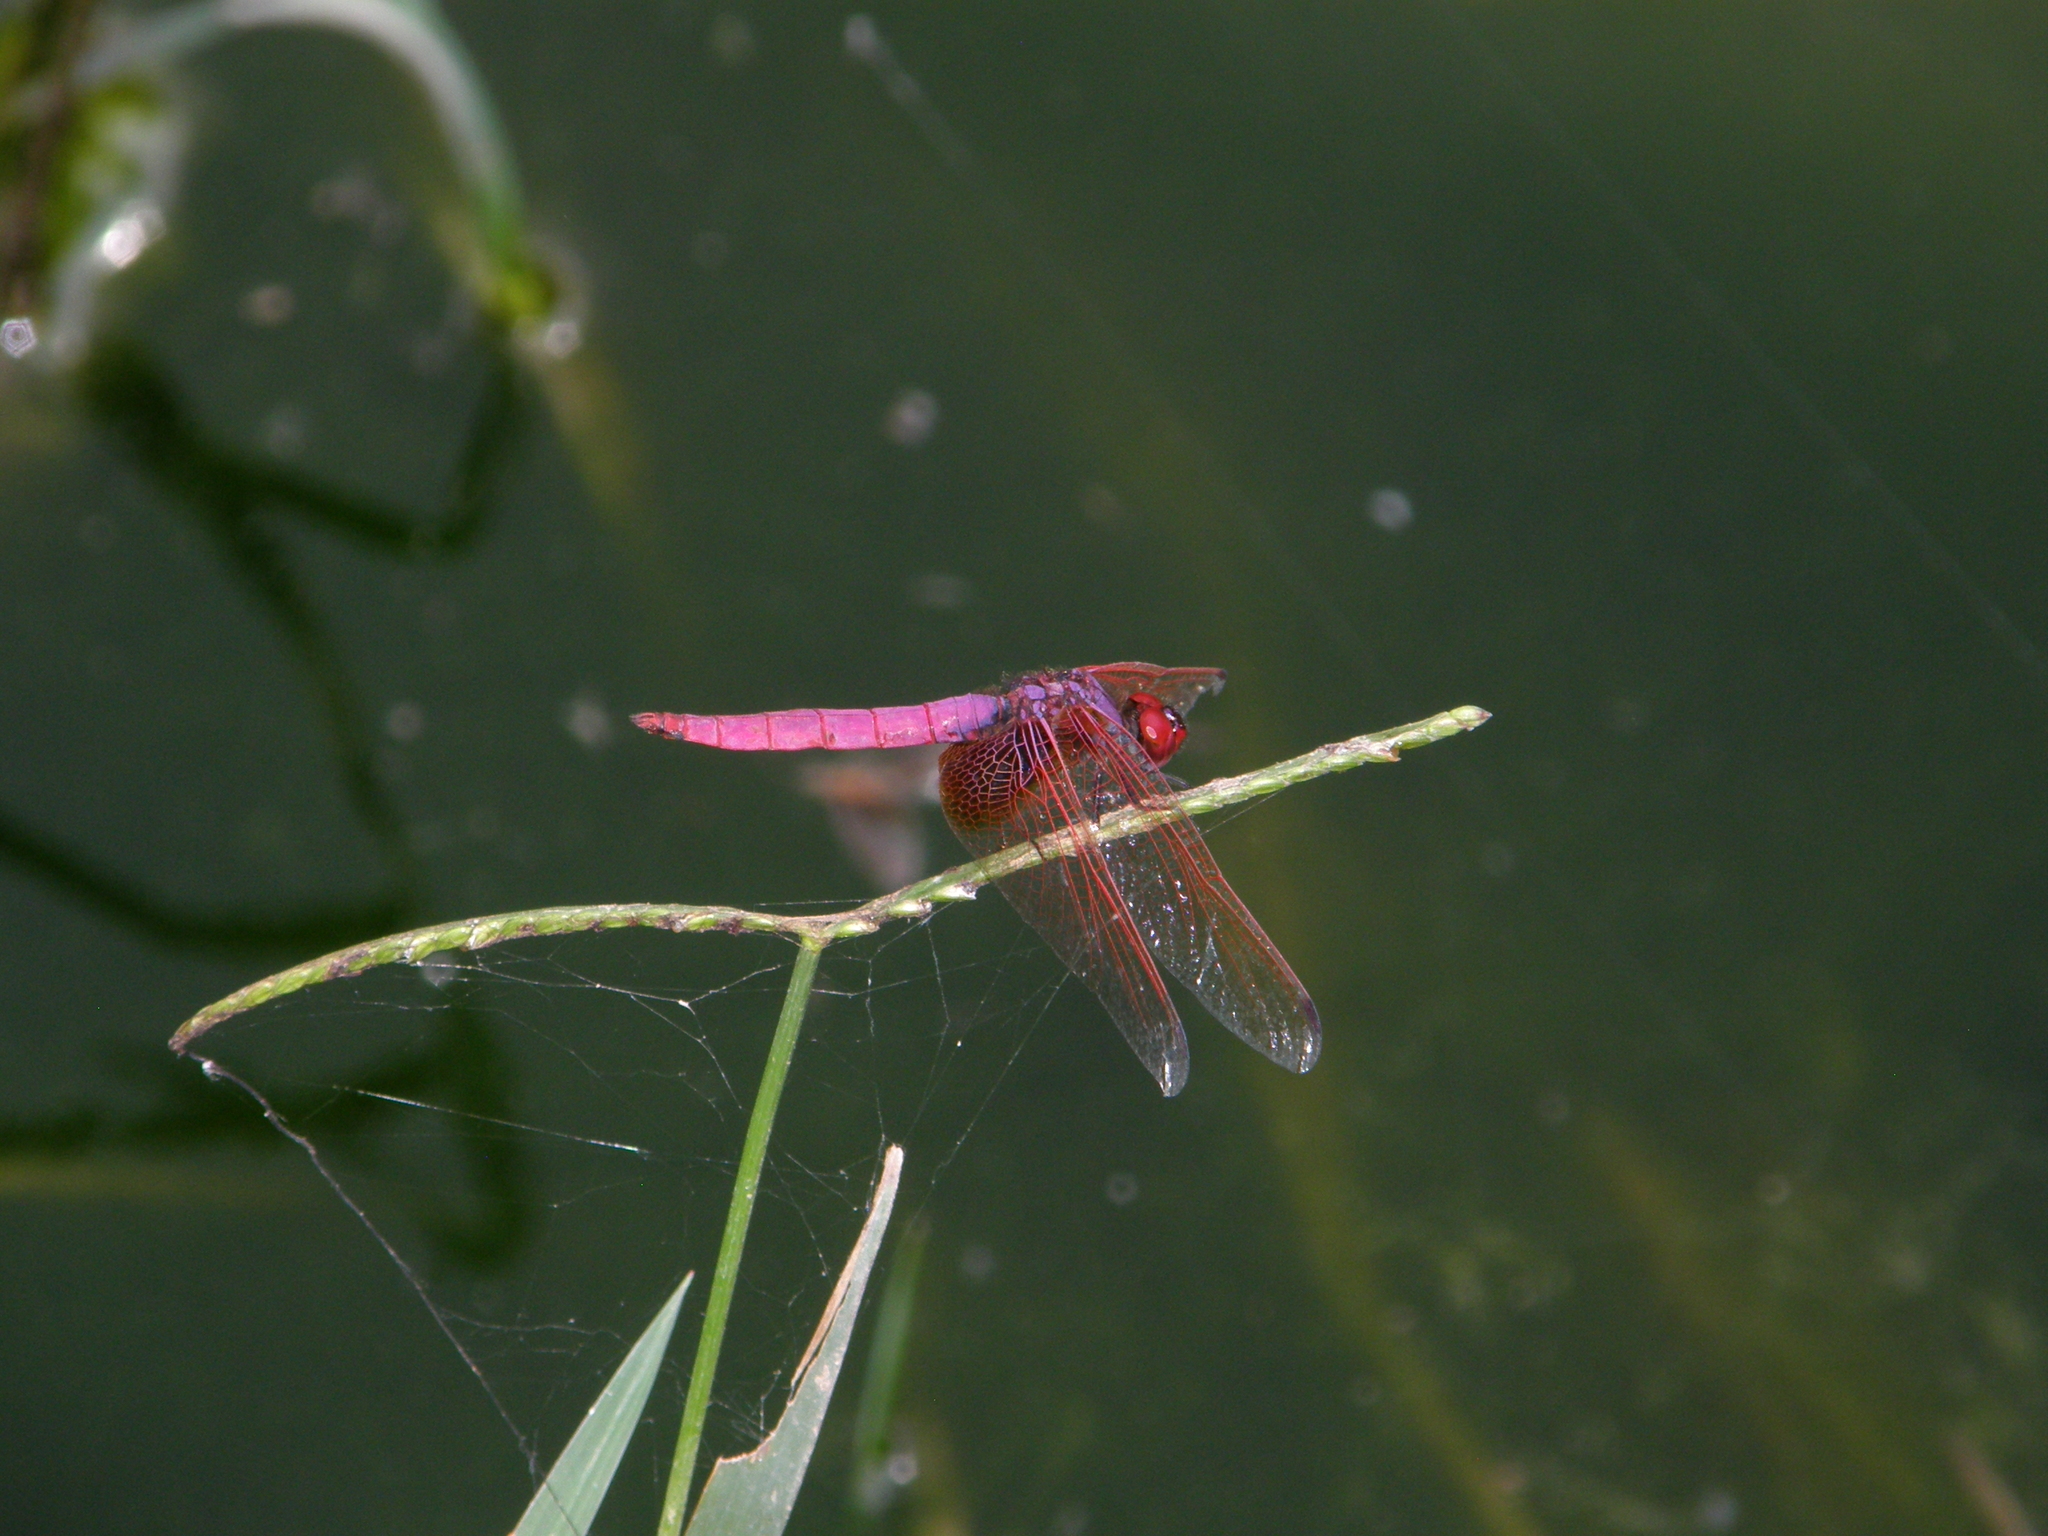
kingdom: Animalia
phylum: Arthropoda
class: Insecta
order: Odonata
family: Libellulidae
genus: Trithemis
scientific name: Trithemis aurora
